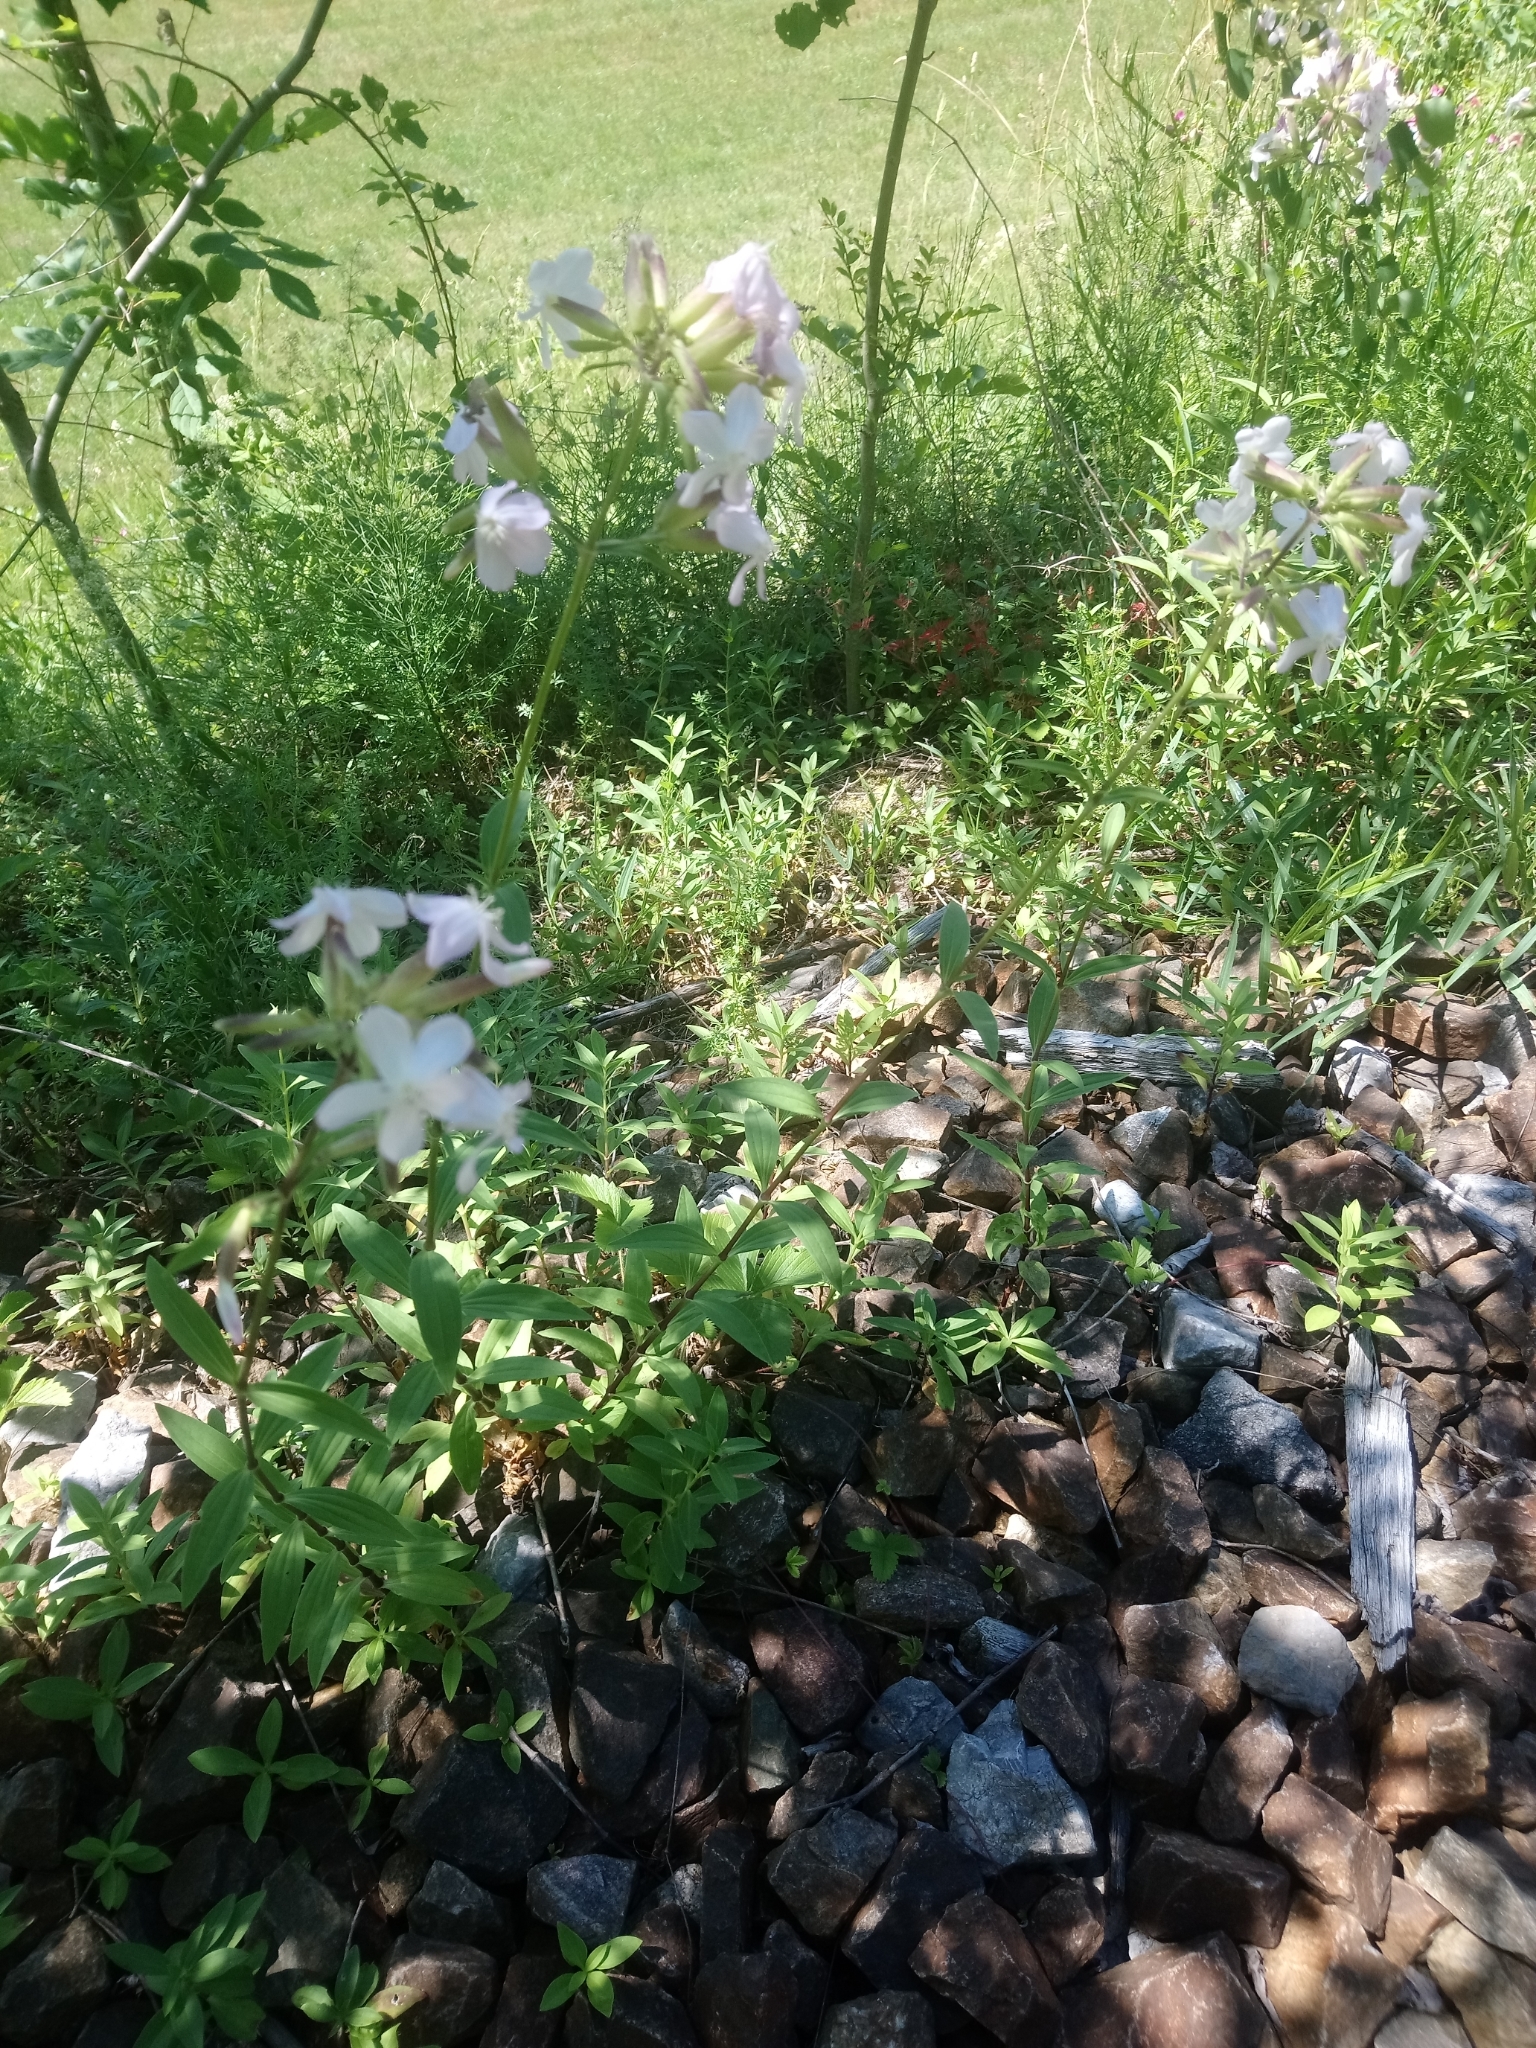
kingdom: Plantae
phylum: Tracheophyta
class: Magnoliopsida
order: Caryophyllales
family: Caryophyllaceae
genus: Saponaria
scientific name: Saponaria officinalis
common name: Soapwort
